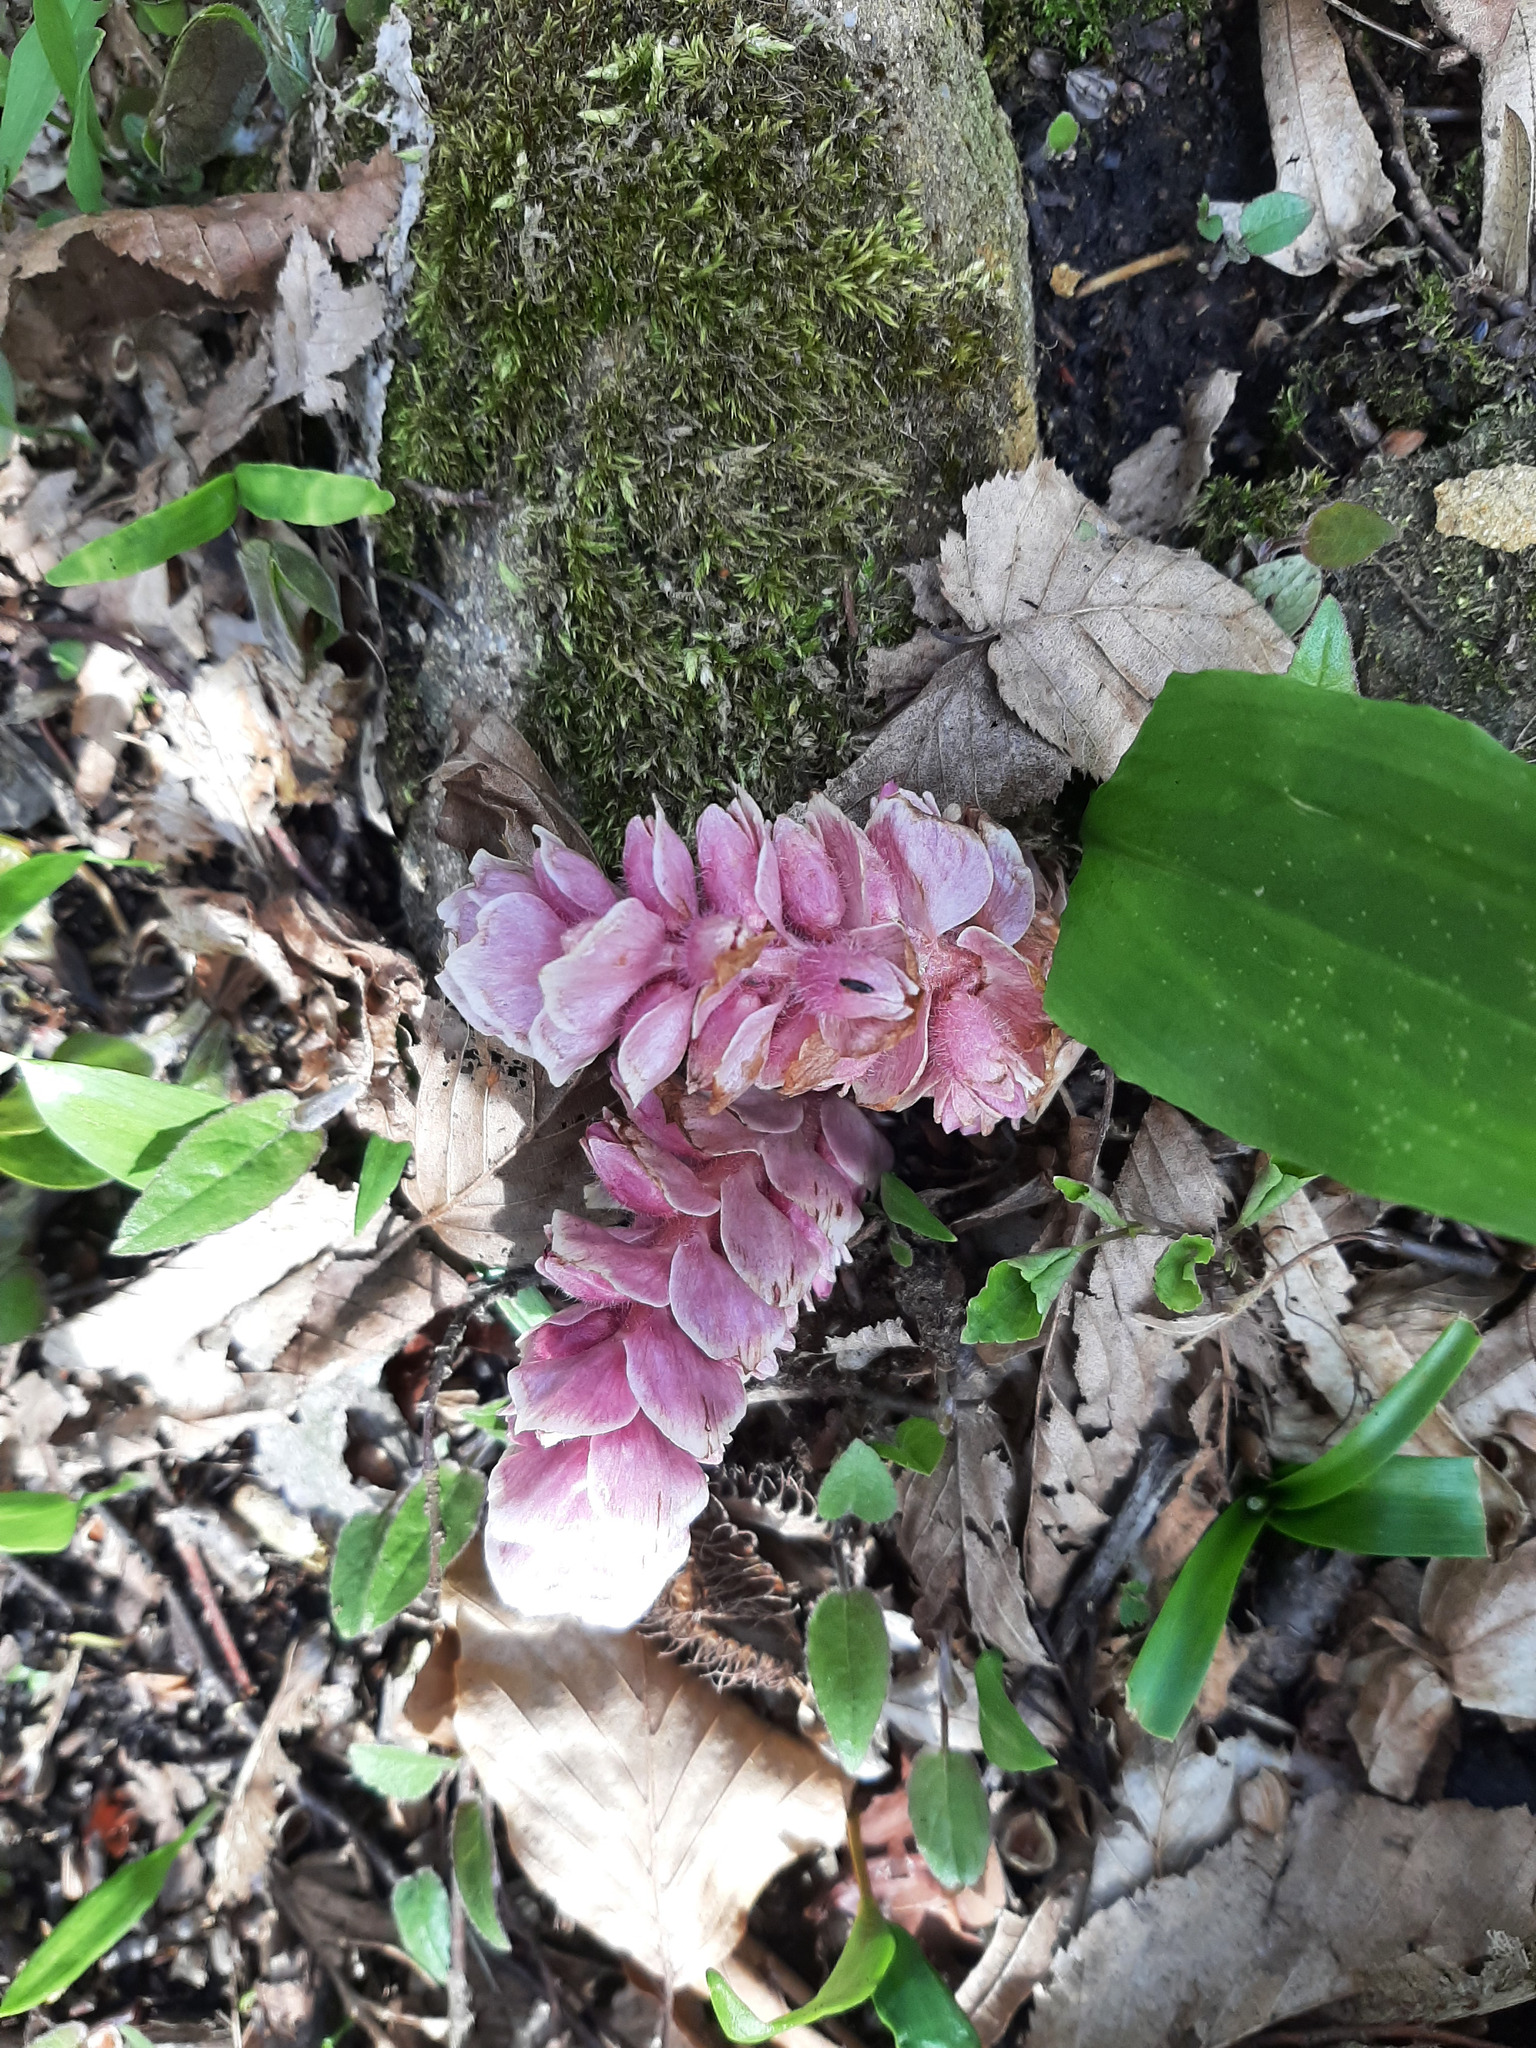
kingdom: Plantae
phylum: Tracheophyta
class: Magnoliopsida
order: Lamiales
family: Orobanchaceae
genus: Lathraea
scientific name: Lathraea squamaria
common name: Toothwort
